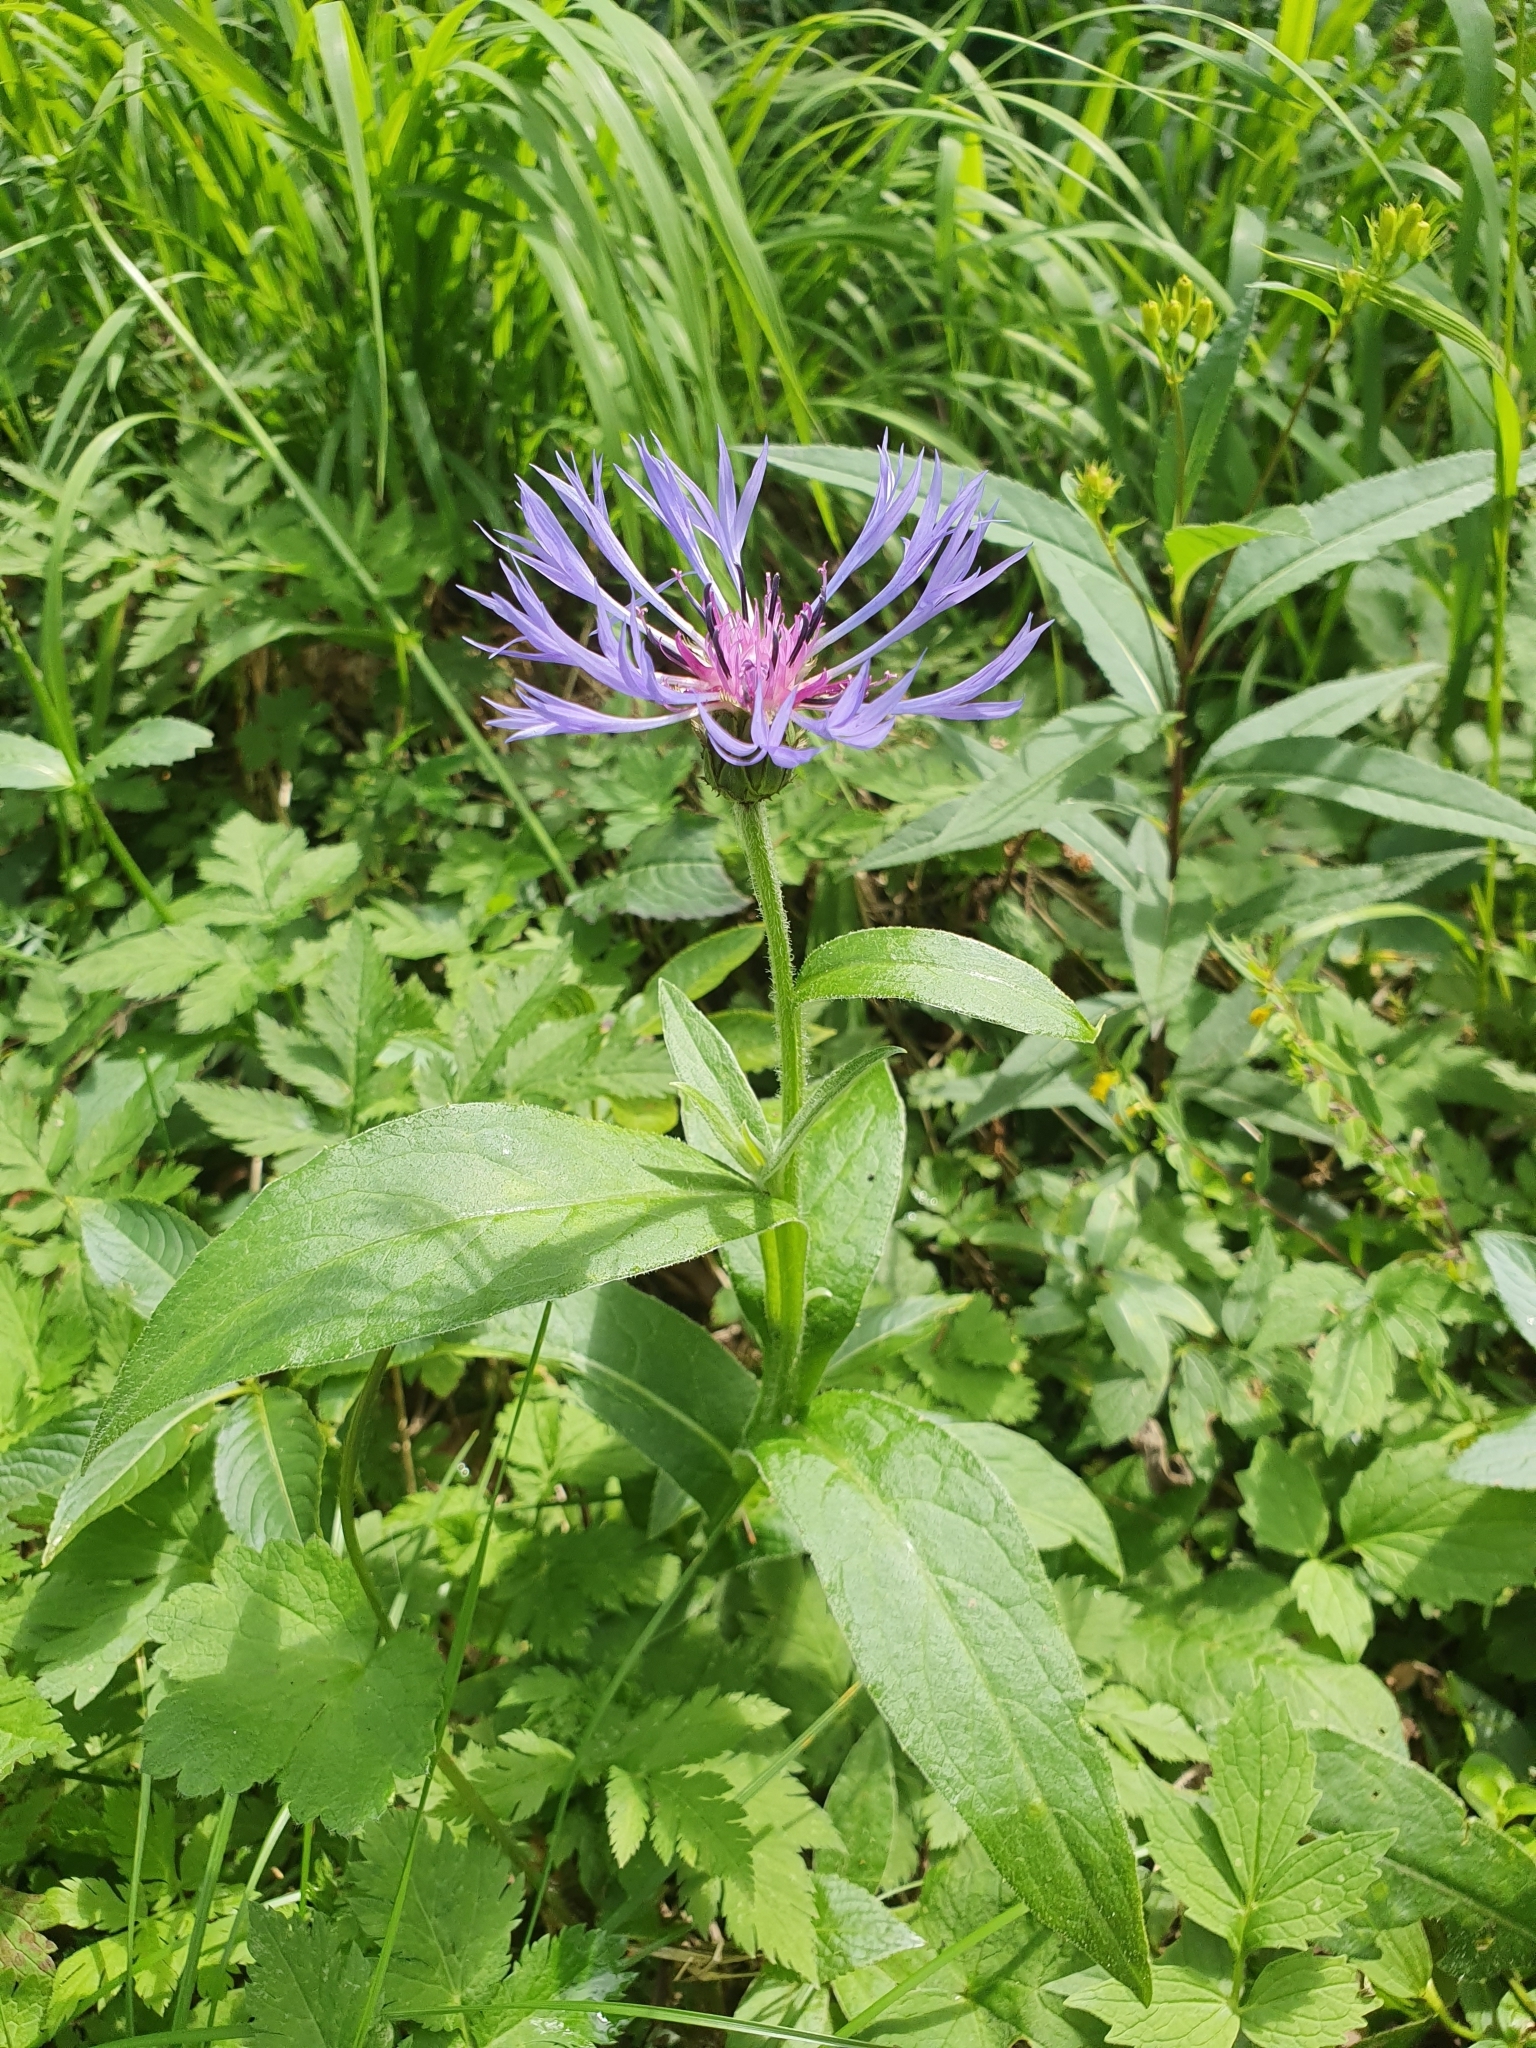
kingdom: Plantae
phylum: Tracheophyta
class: Magnoliopsida
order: Asterales
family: Asteraceae
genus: Centaurea
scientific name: Centaurea montana
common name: Perennial cornflower
